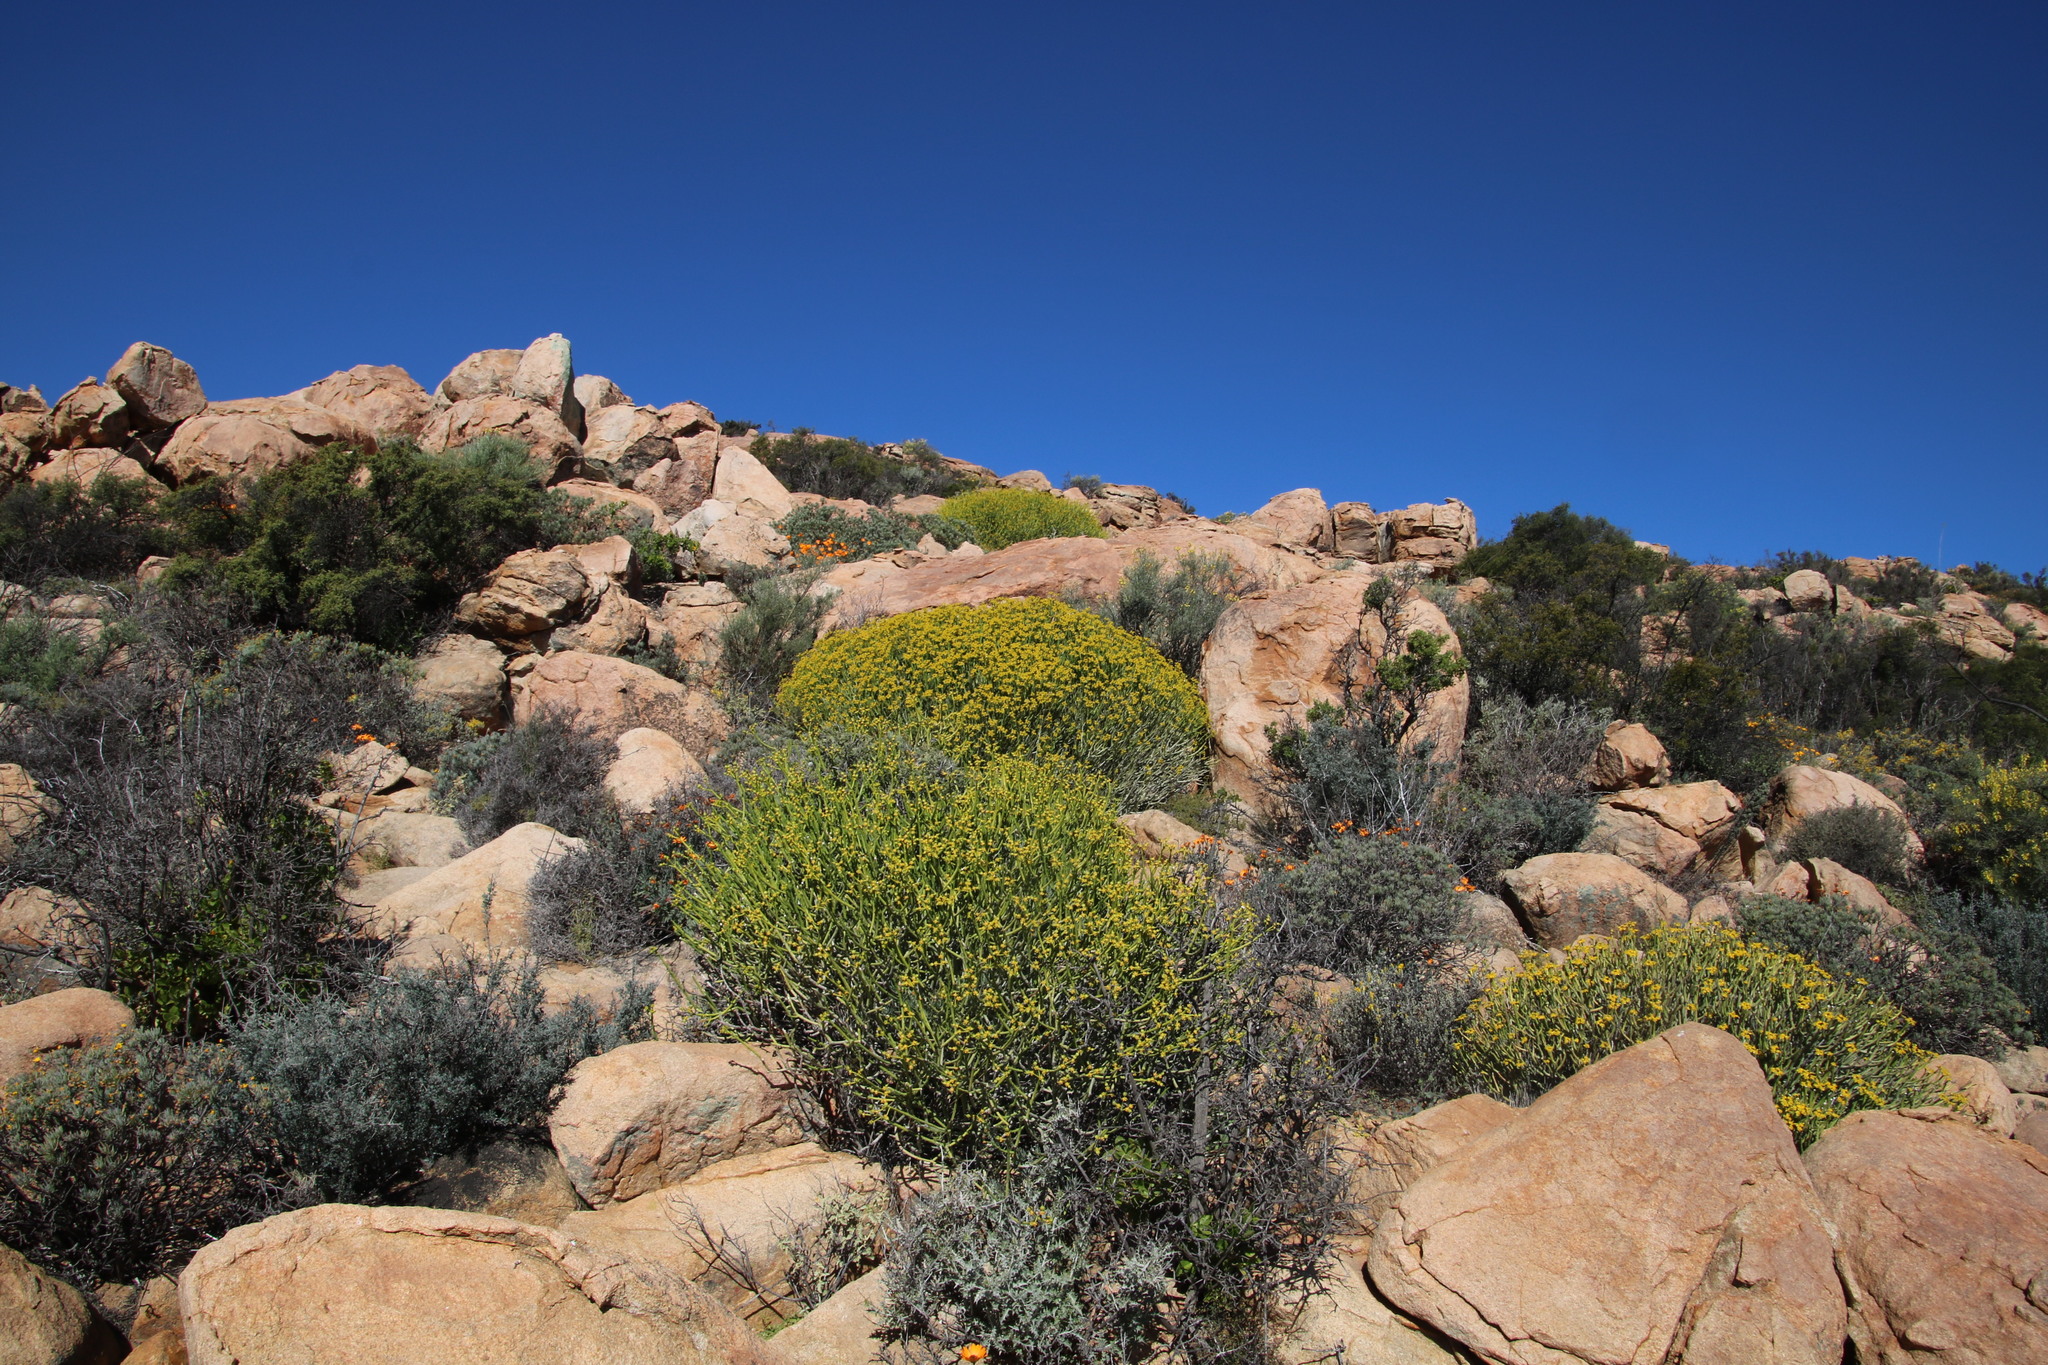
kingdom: Plantae
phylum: Tracheophyta
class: Magnoliopsida
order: Malpighiales
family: Euphorbiaceae
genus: Euphorbia
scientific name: Euphorbia mauritanica
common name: Jackal's-food
